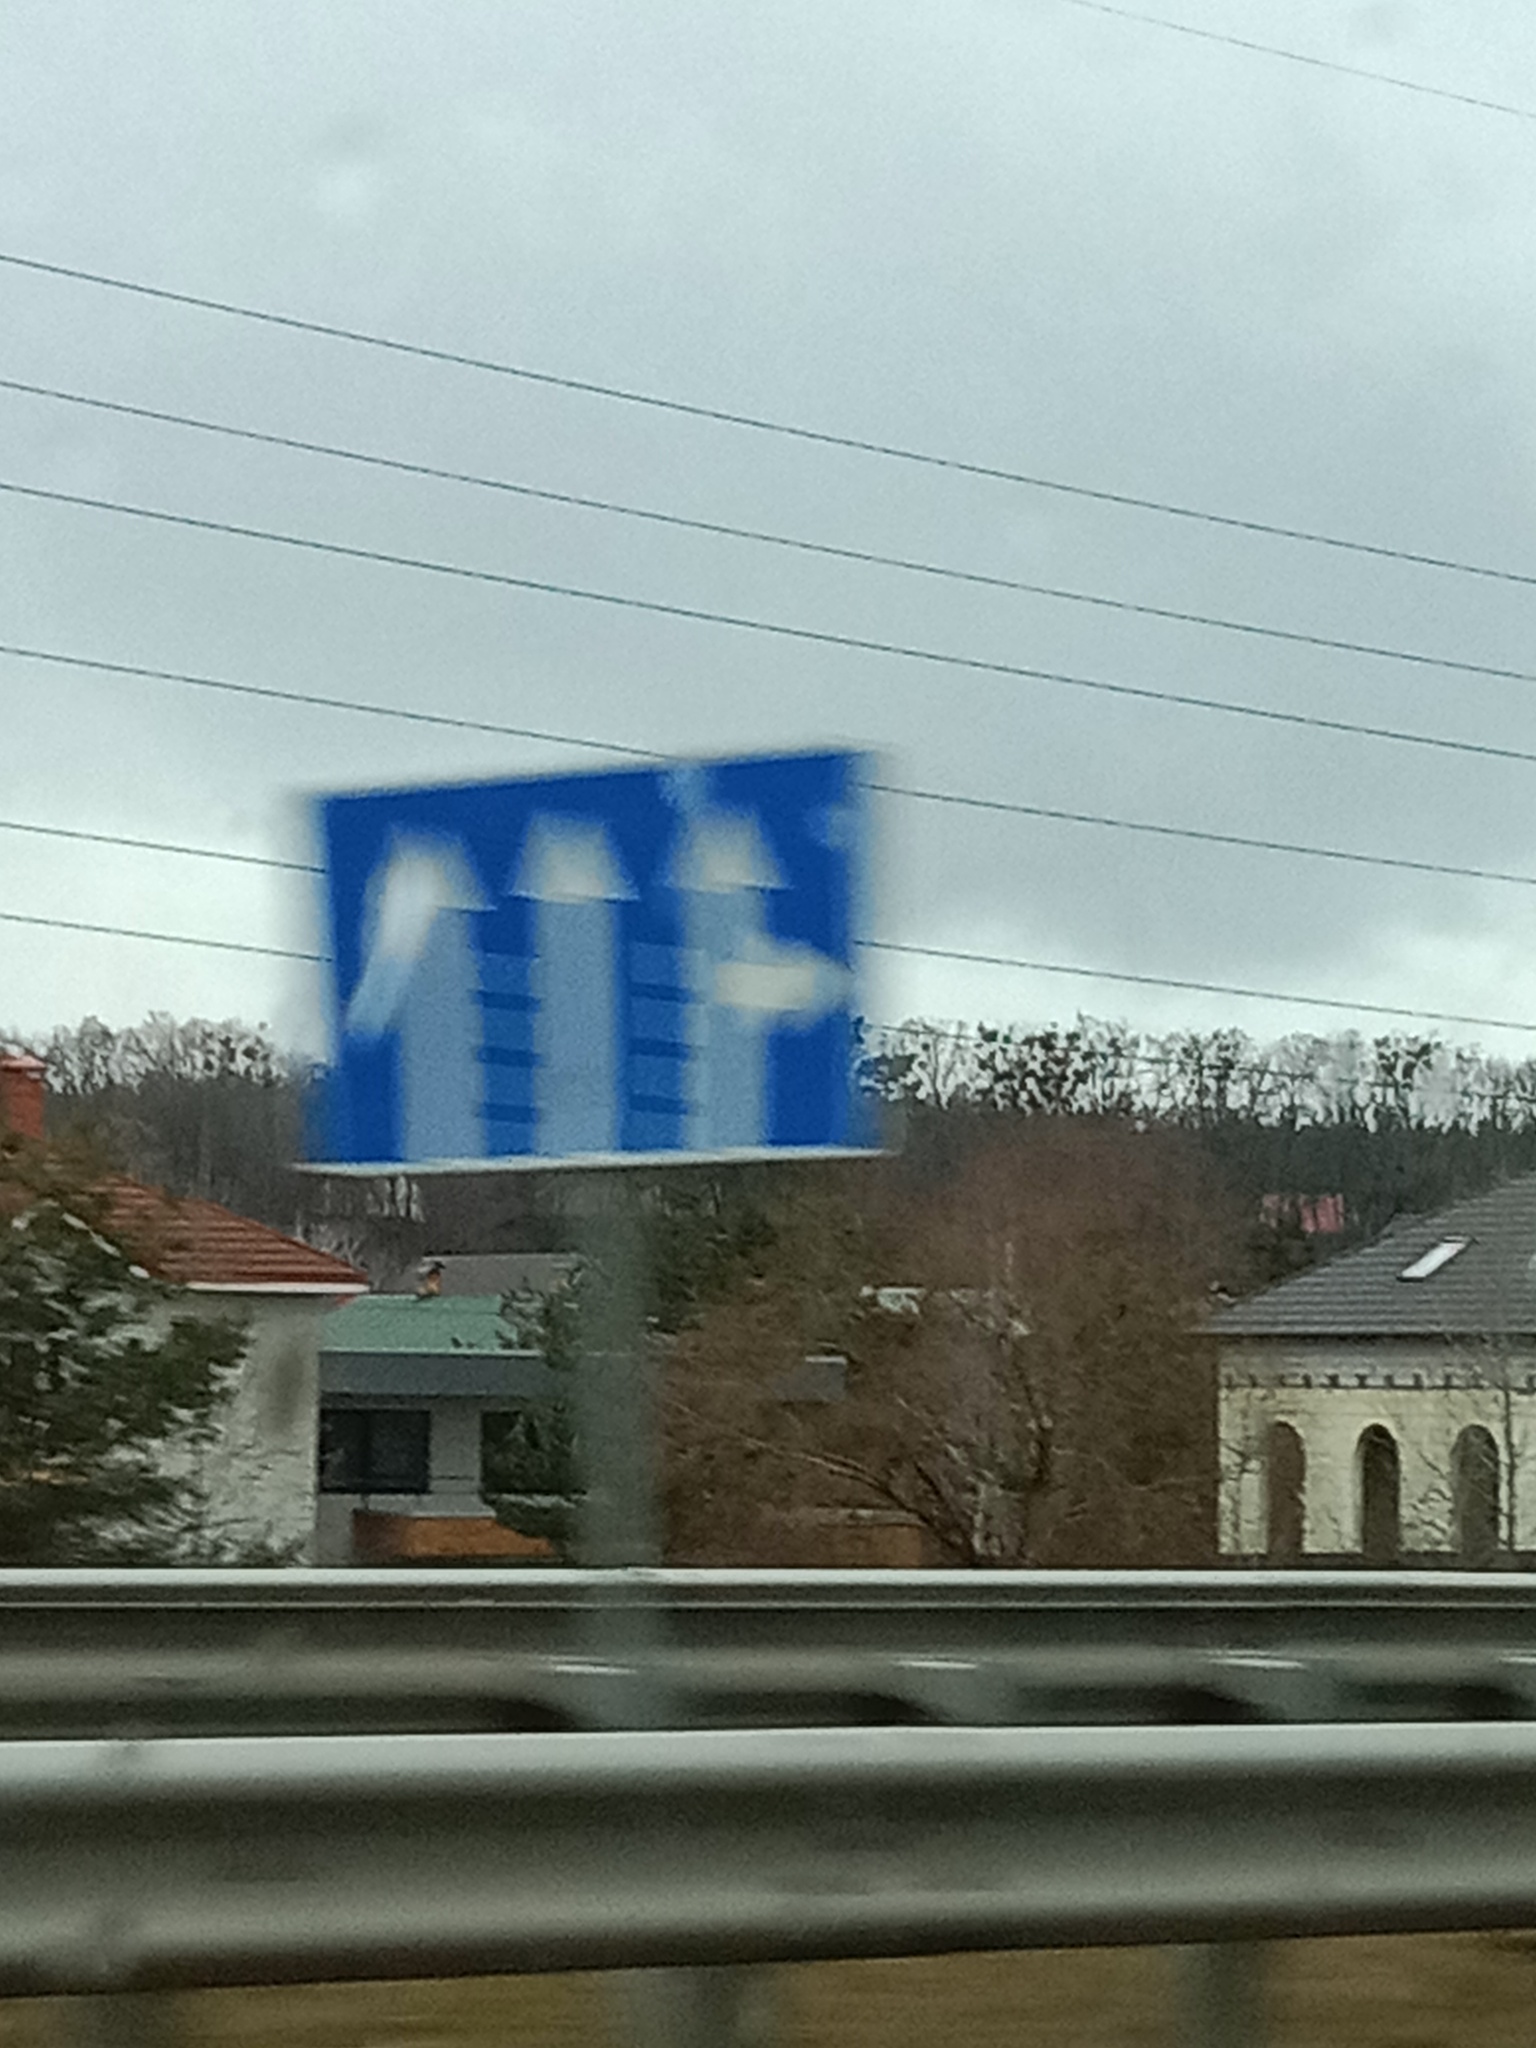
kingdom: Plantae
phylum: Tracheophyta
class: Magnoliopsida
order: Santalales
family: Viscaceae
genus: Viscum
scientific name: Viscum album
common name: Mistletoe
